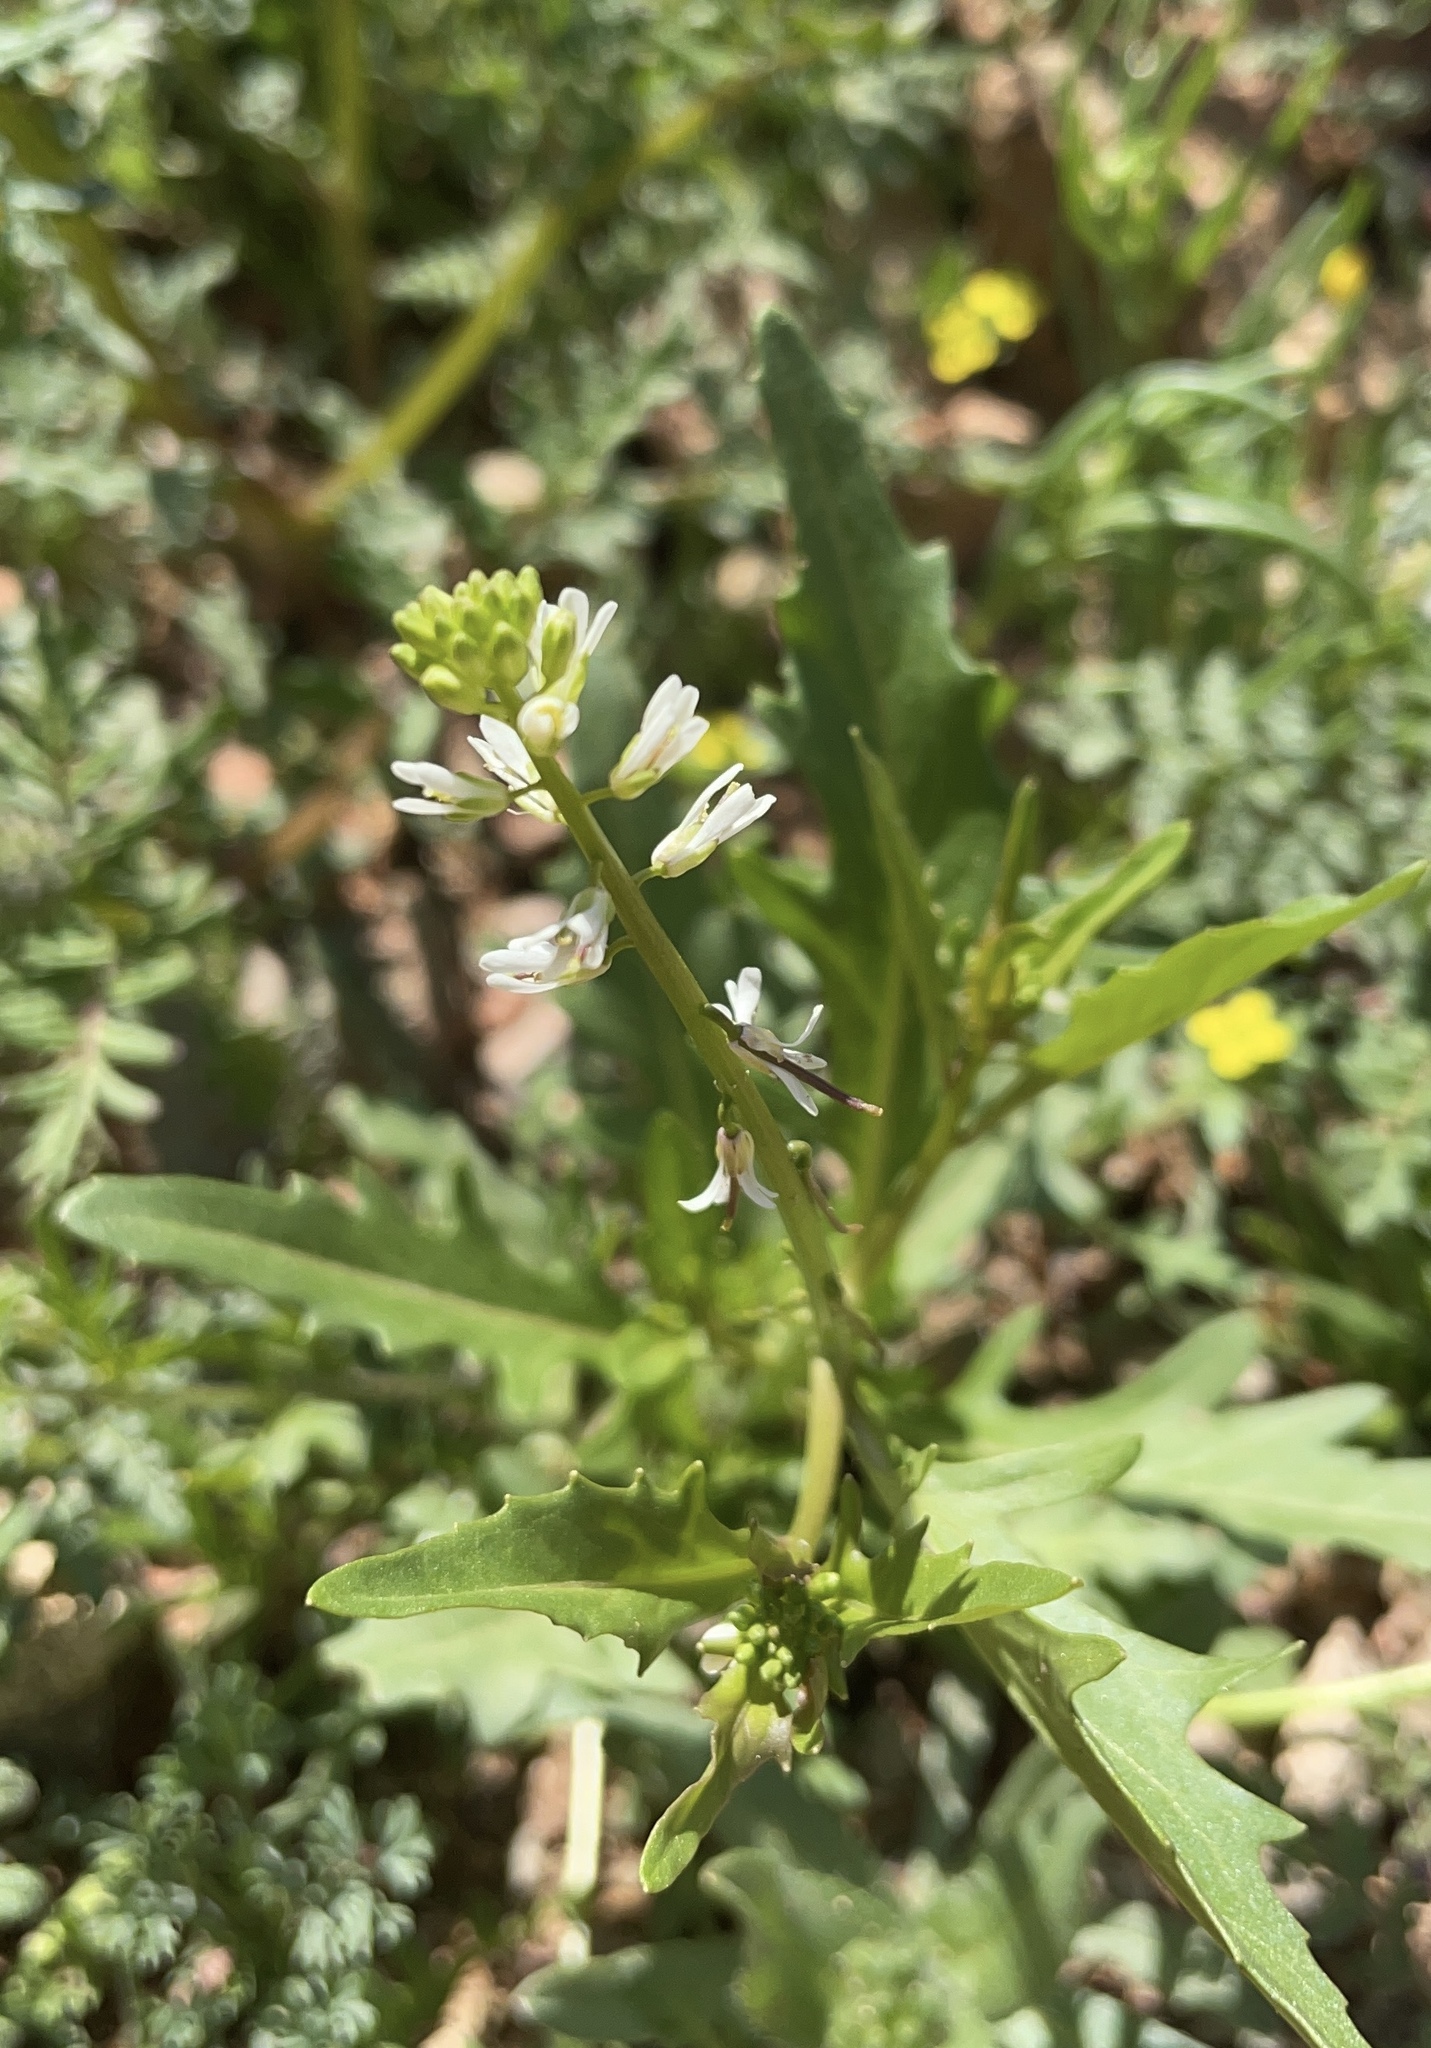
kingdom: Plantae
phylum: Tracheophyta
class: Magnoliopsida
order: Brassicales
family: Brassicaceae
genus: Streptanthus
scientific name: Streptanthus lasiophyllus
